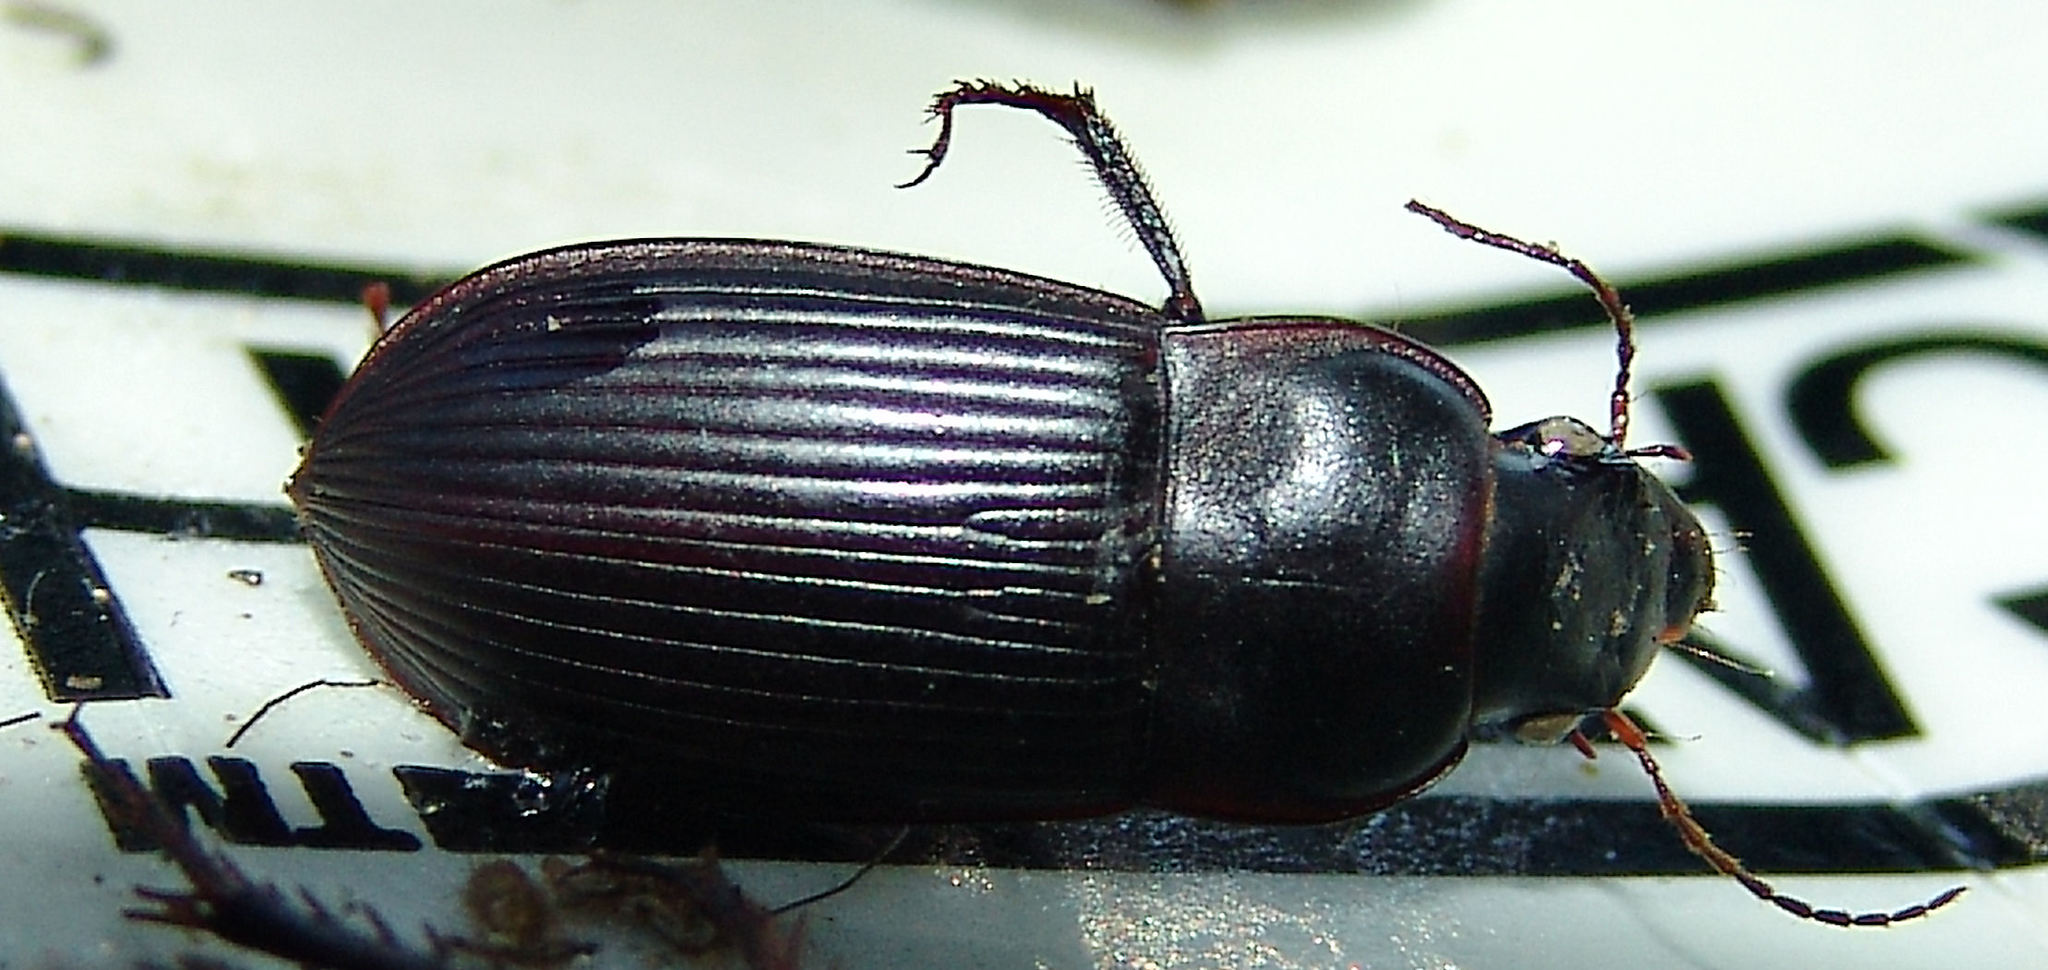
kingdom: Animalia
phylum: Arthropoda
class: Insecta
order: Coleoptera
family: Carabidae
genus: Harpalus
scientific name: Harpalus caliginosus
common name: Murky ground beetle
